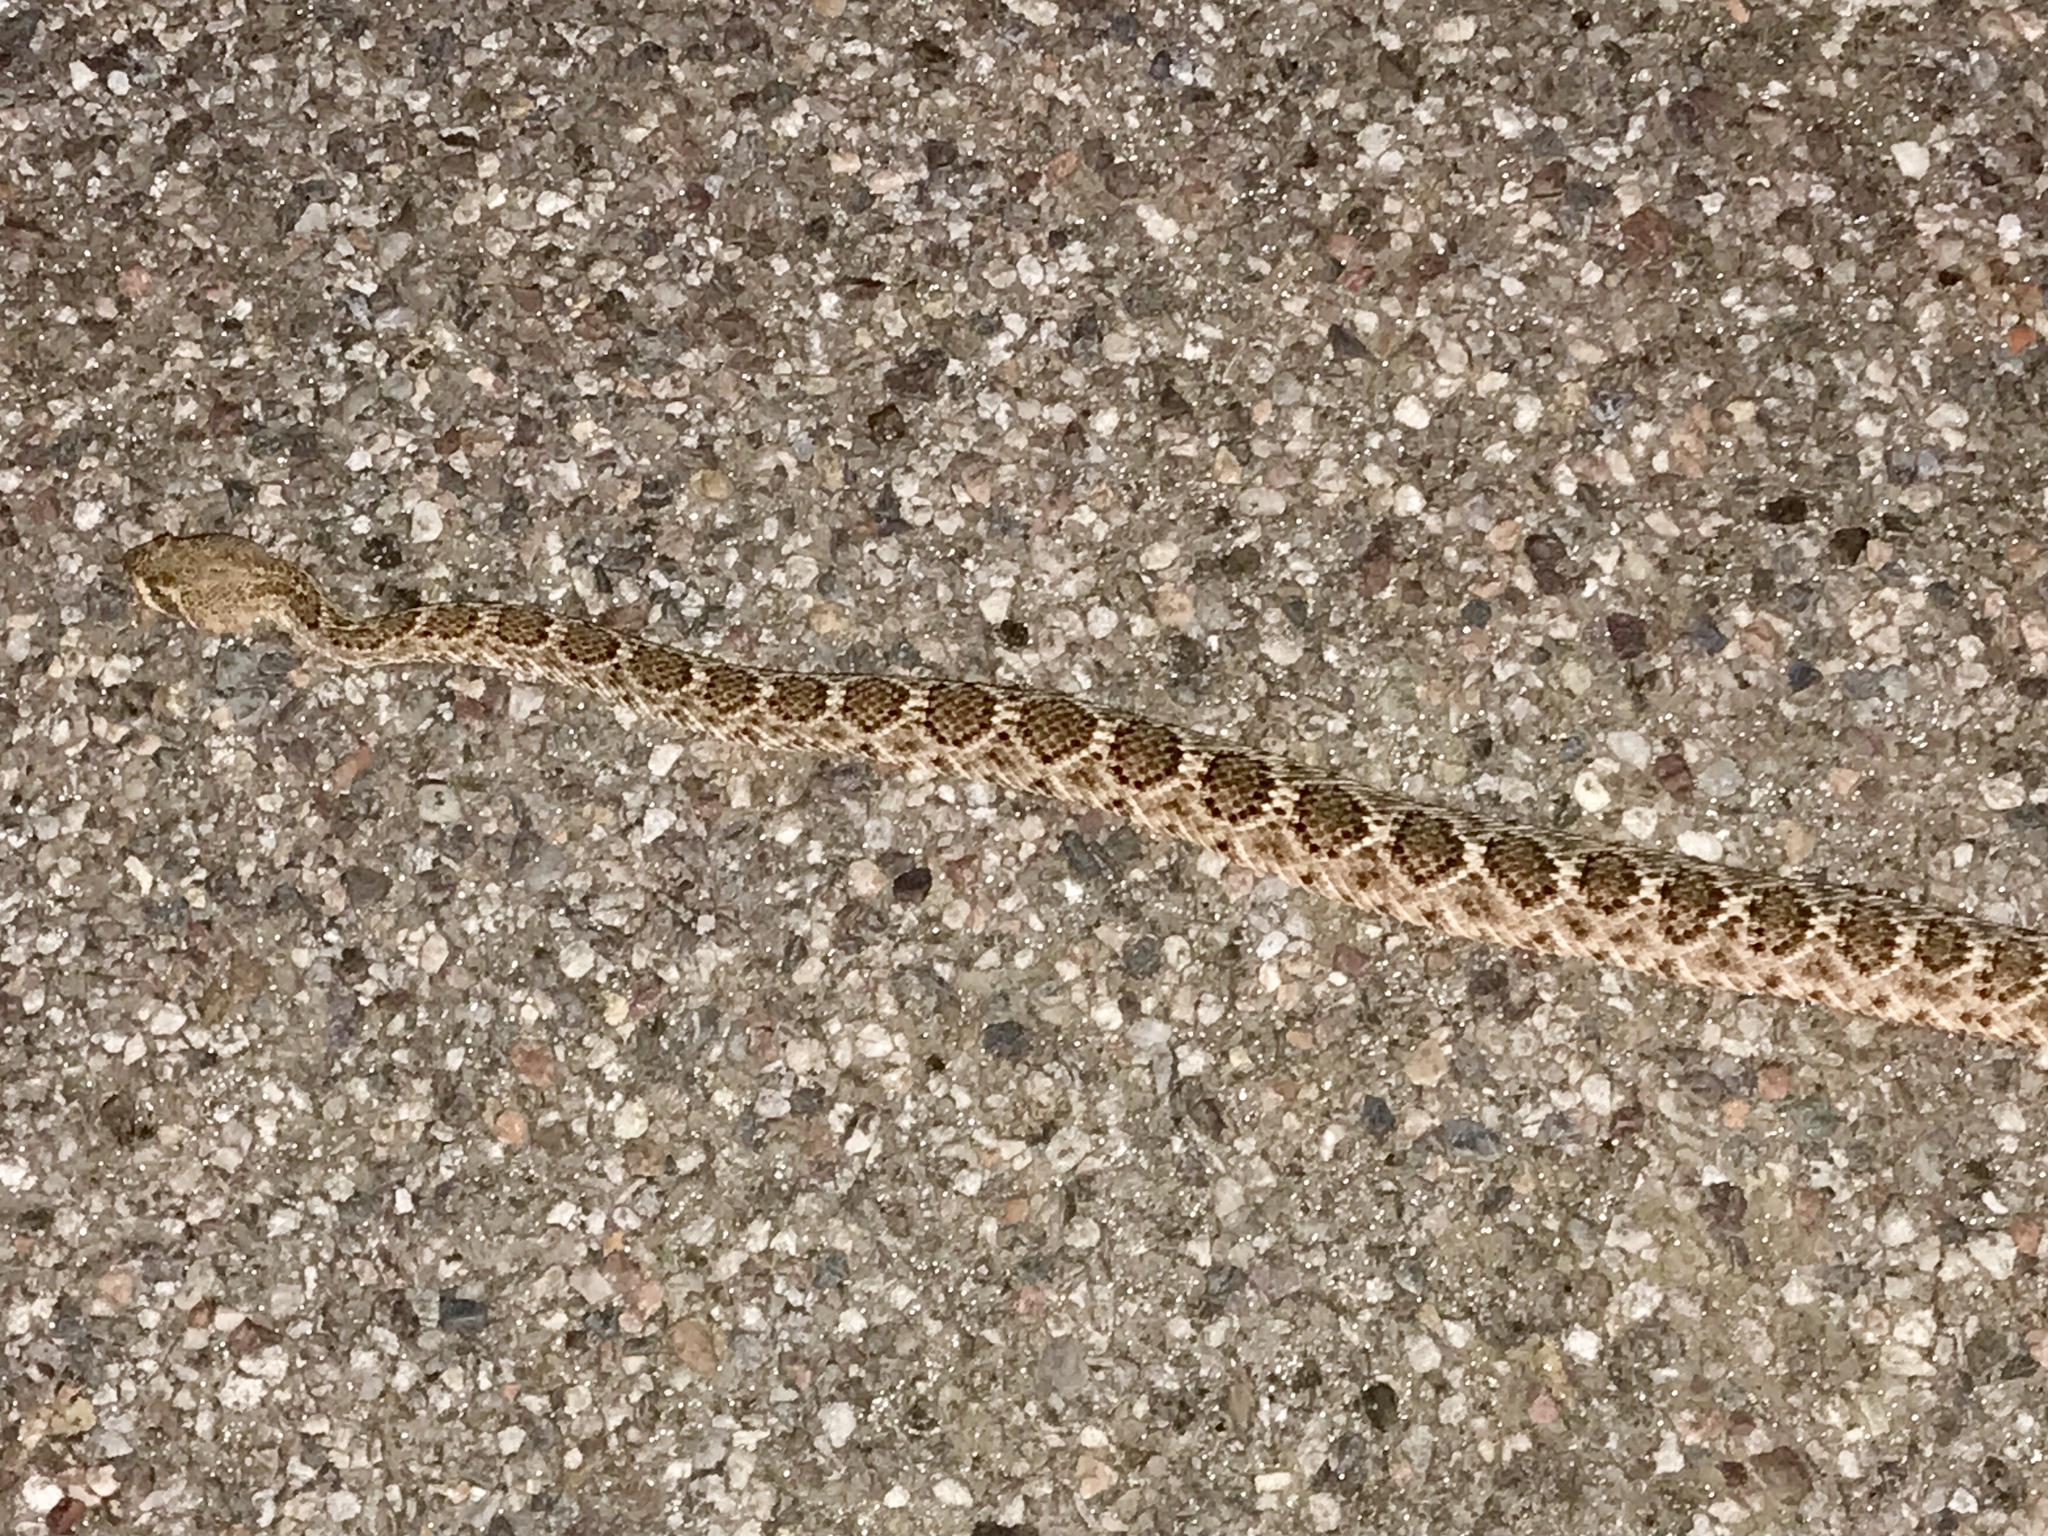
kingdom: Animalia
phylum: Chordata
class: Squamata
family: Viperidae
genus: Crotalus
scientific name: Crotalus atrox
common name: Western diamond-backed rattlesnake
